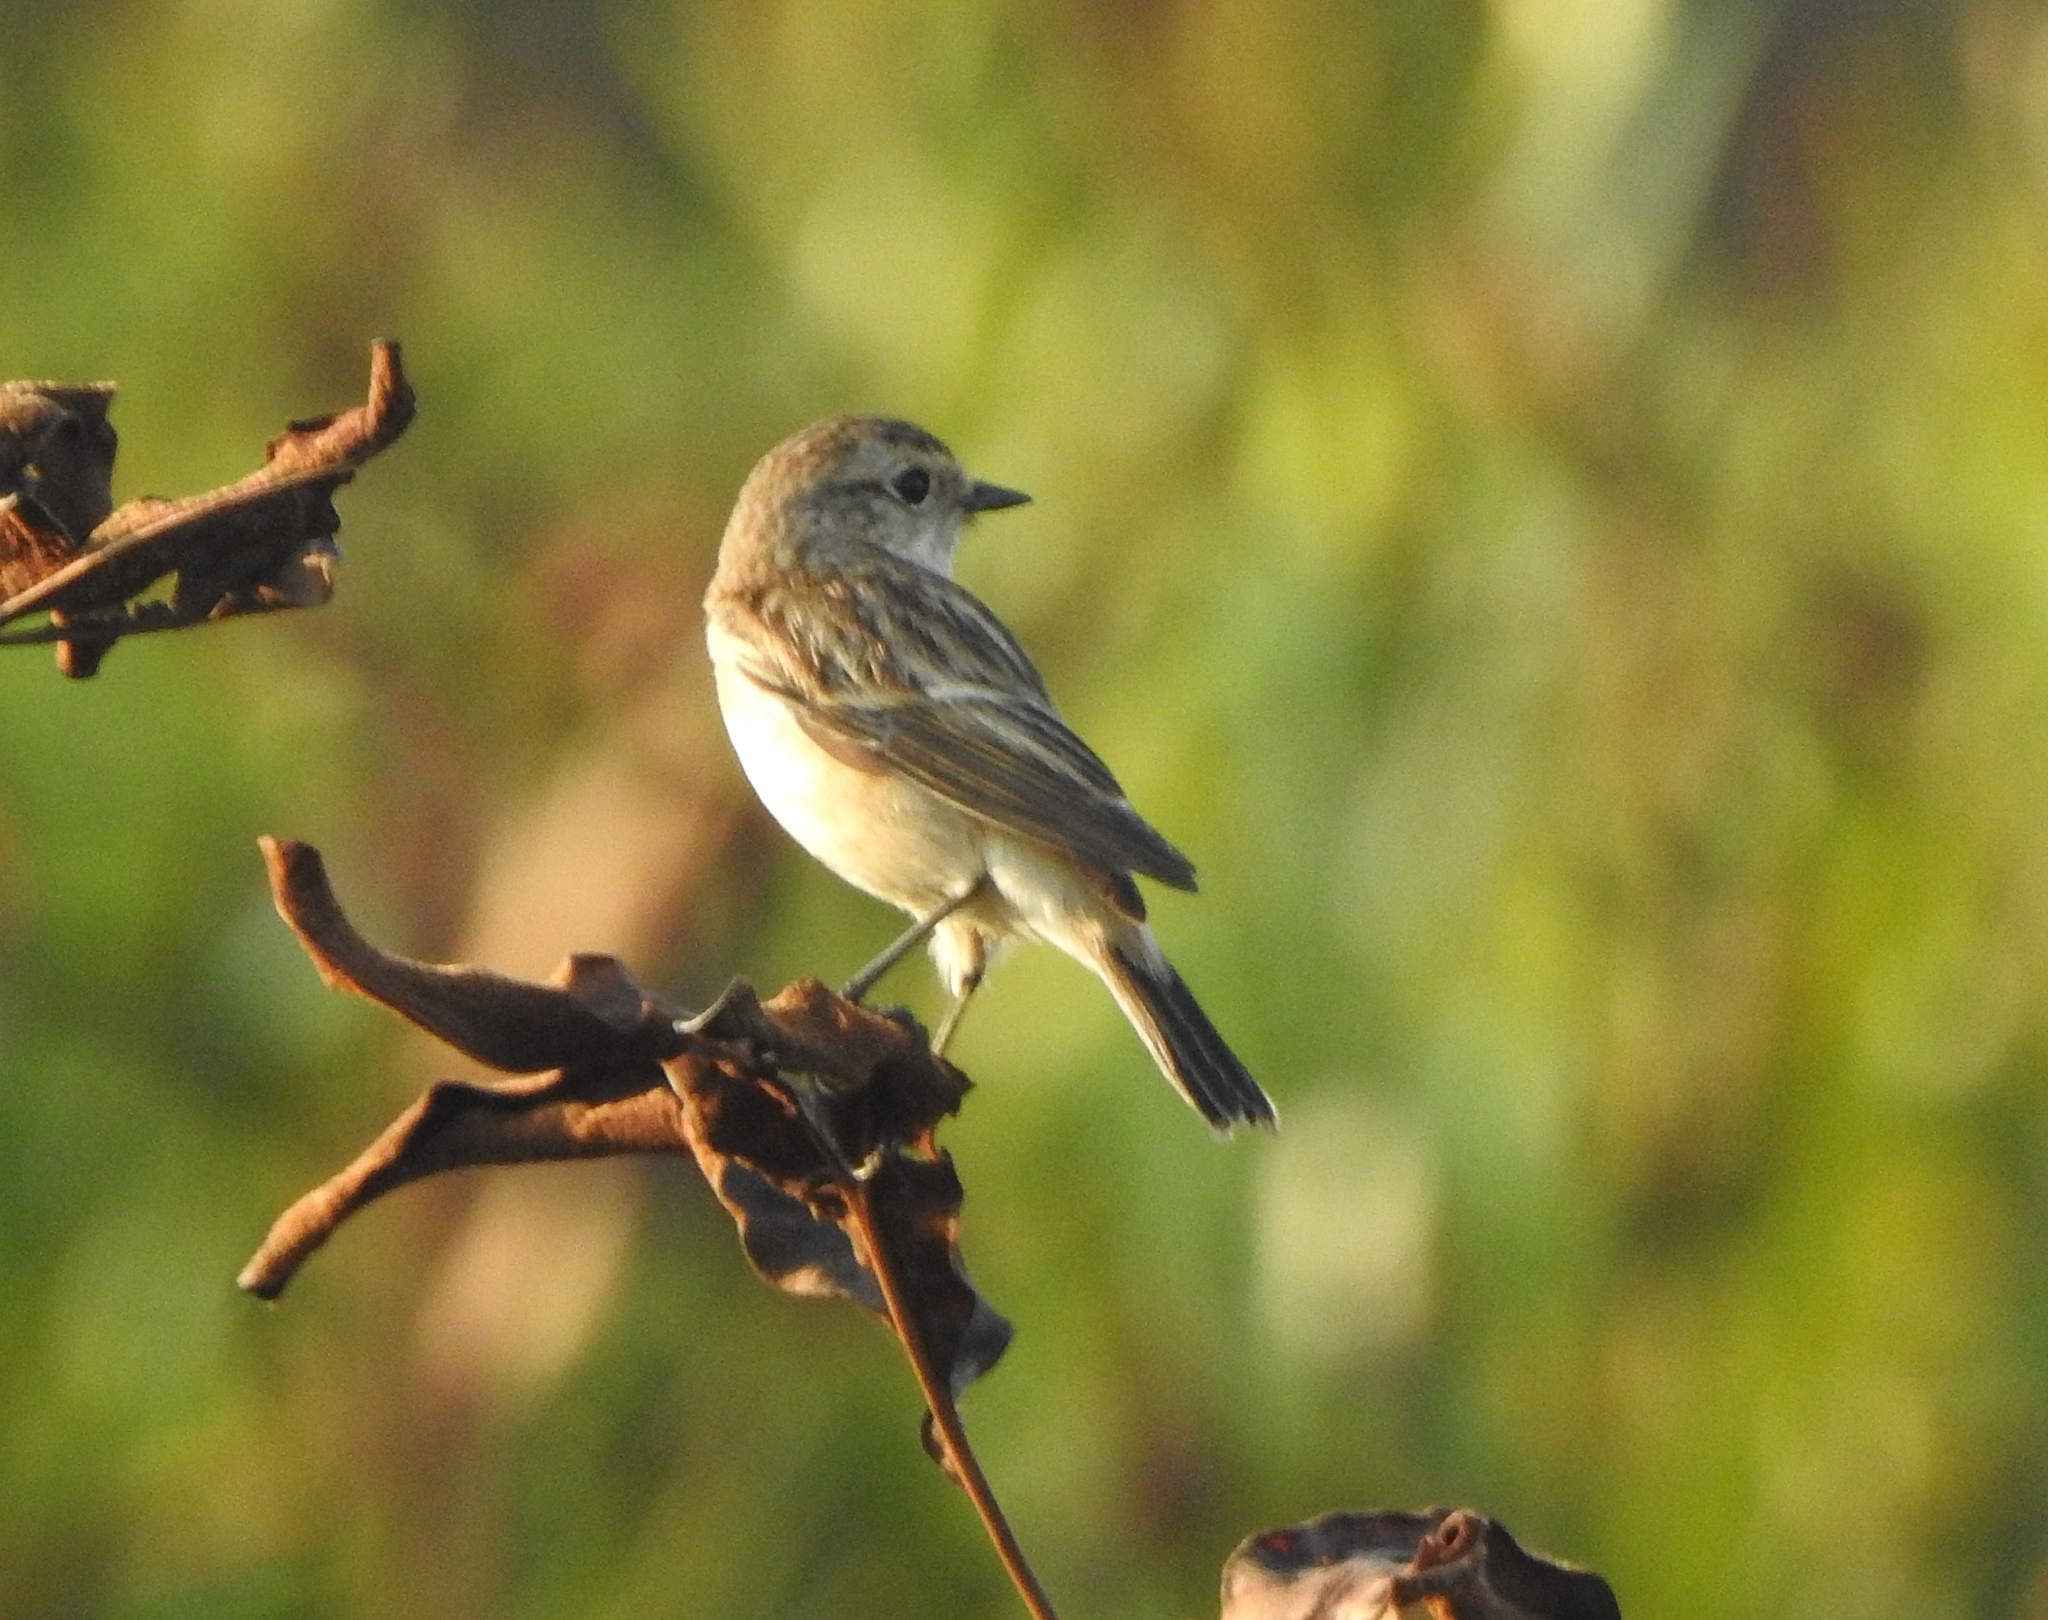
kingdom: Animalia
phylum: Chordata
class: Aves
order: Passeriformes
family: Muscicapidae
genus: Saxicola
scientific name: Saxicola maurus
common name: Siberian stonechat
